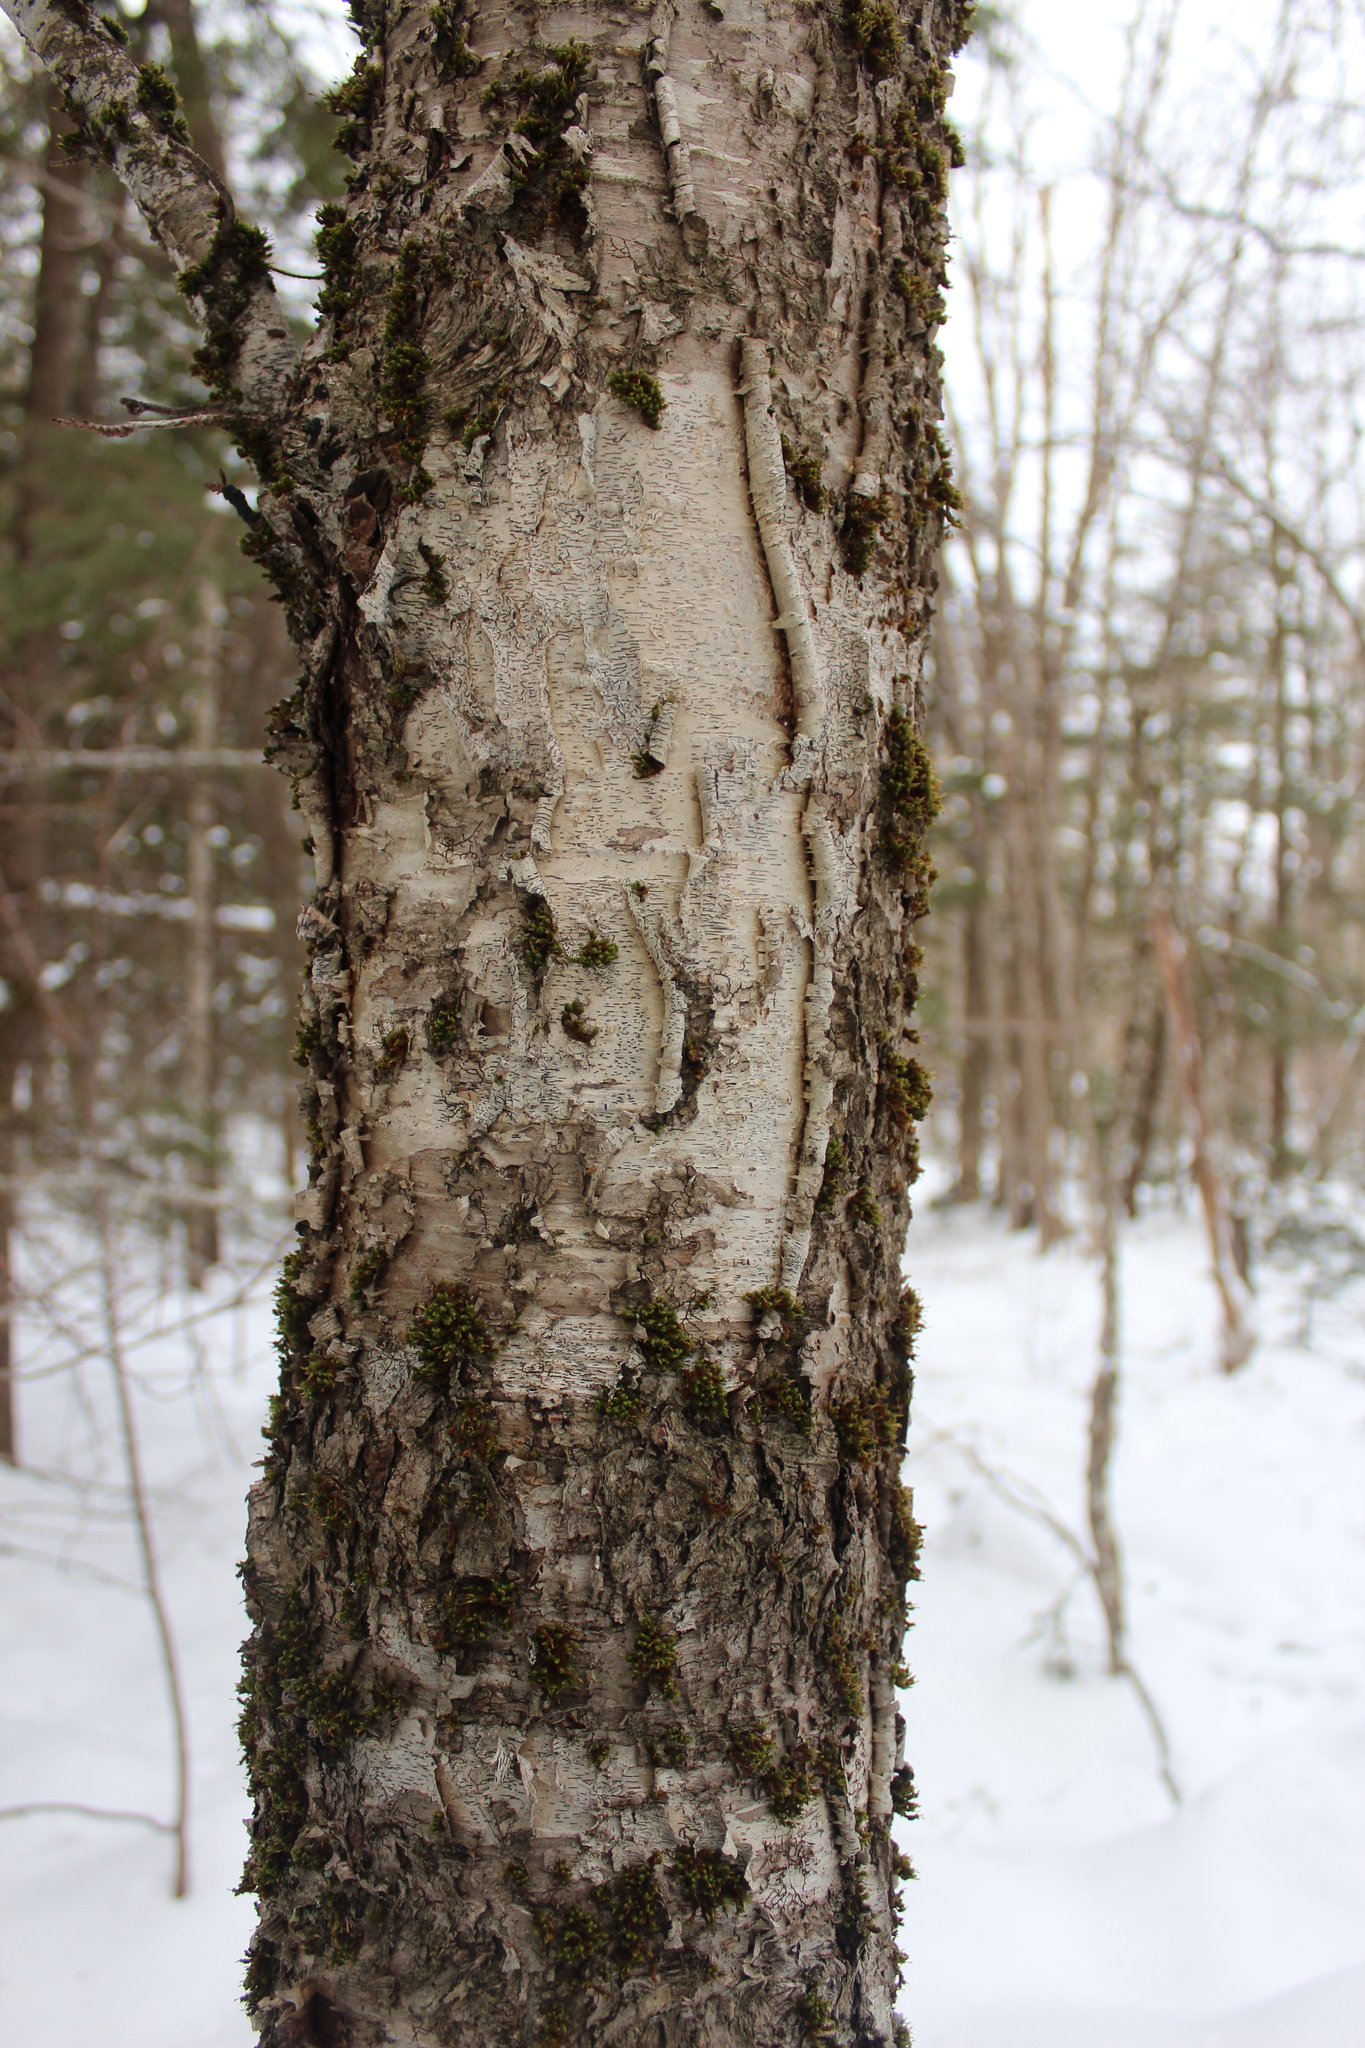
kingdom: Plantae
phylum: Tracheophyta
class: Magnoliopsida
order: Fagales
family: Betulaceae
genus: Betula
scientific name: Betula alleghaniensis
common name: Yellow birch
